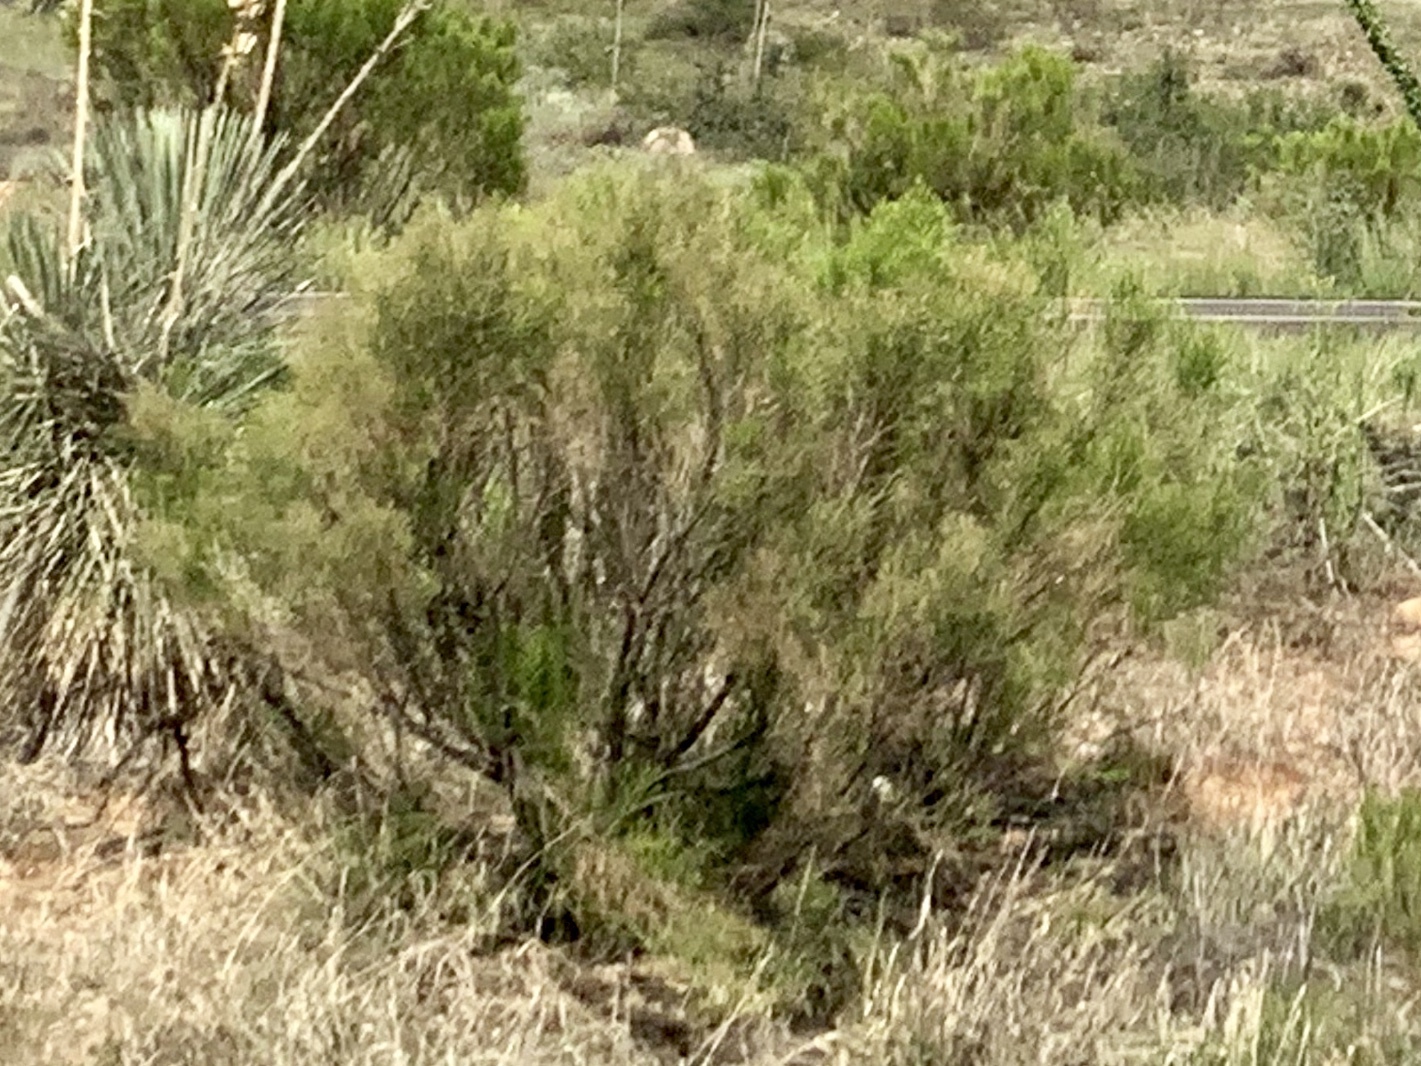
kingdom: Plantae
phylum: Tracheophyta
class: Magnoliopsida
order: Asterales
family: Asteraceae
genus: Baccharis
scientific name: Baccharis sarothroides
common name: Desert-broom
